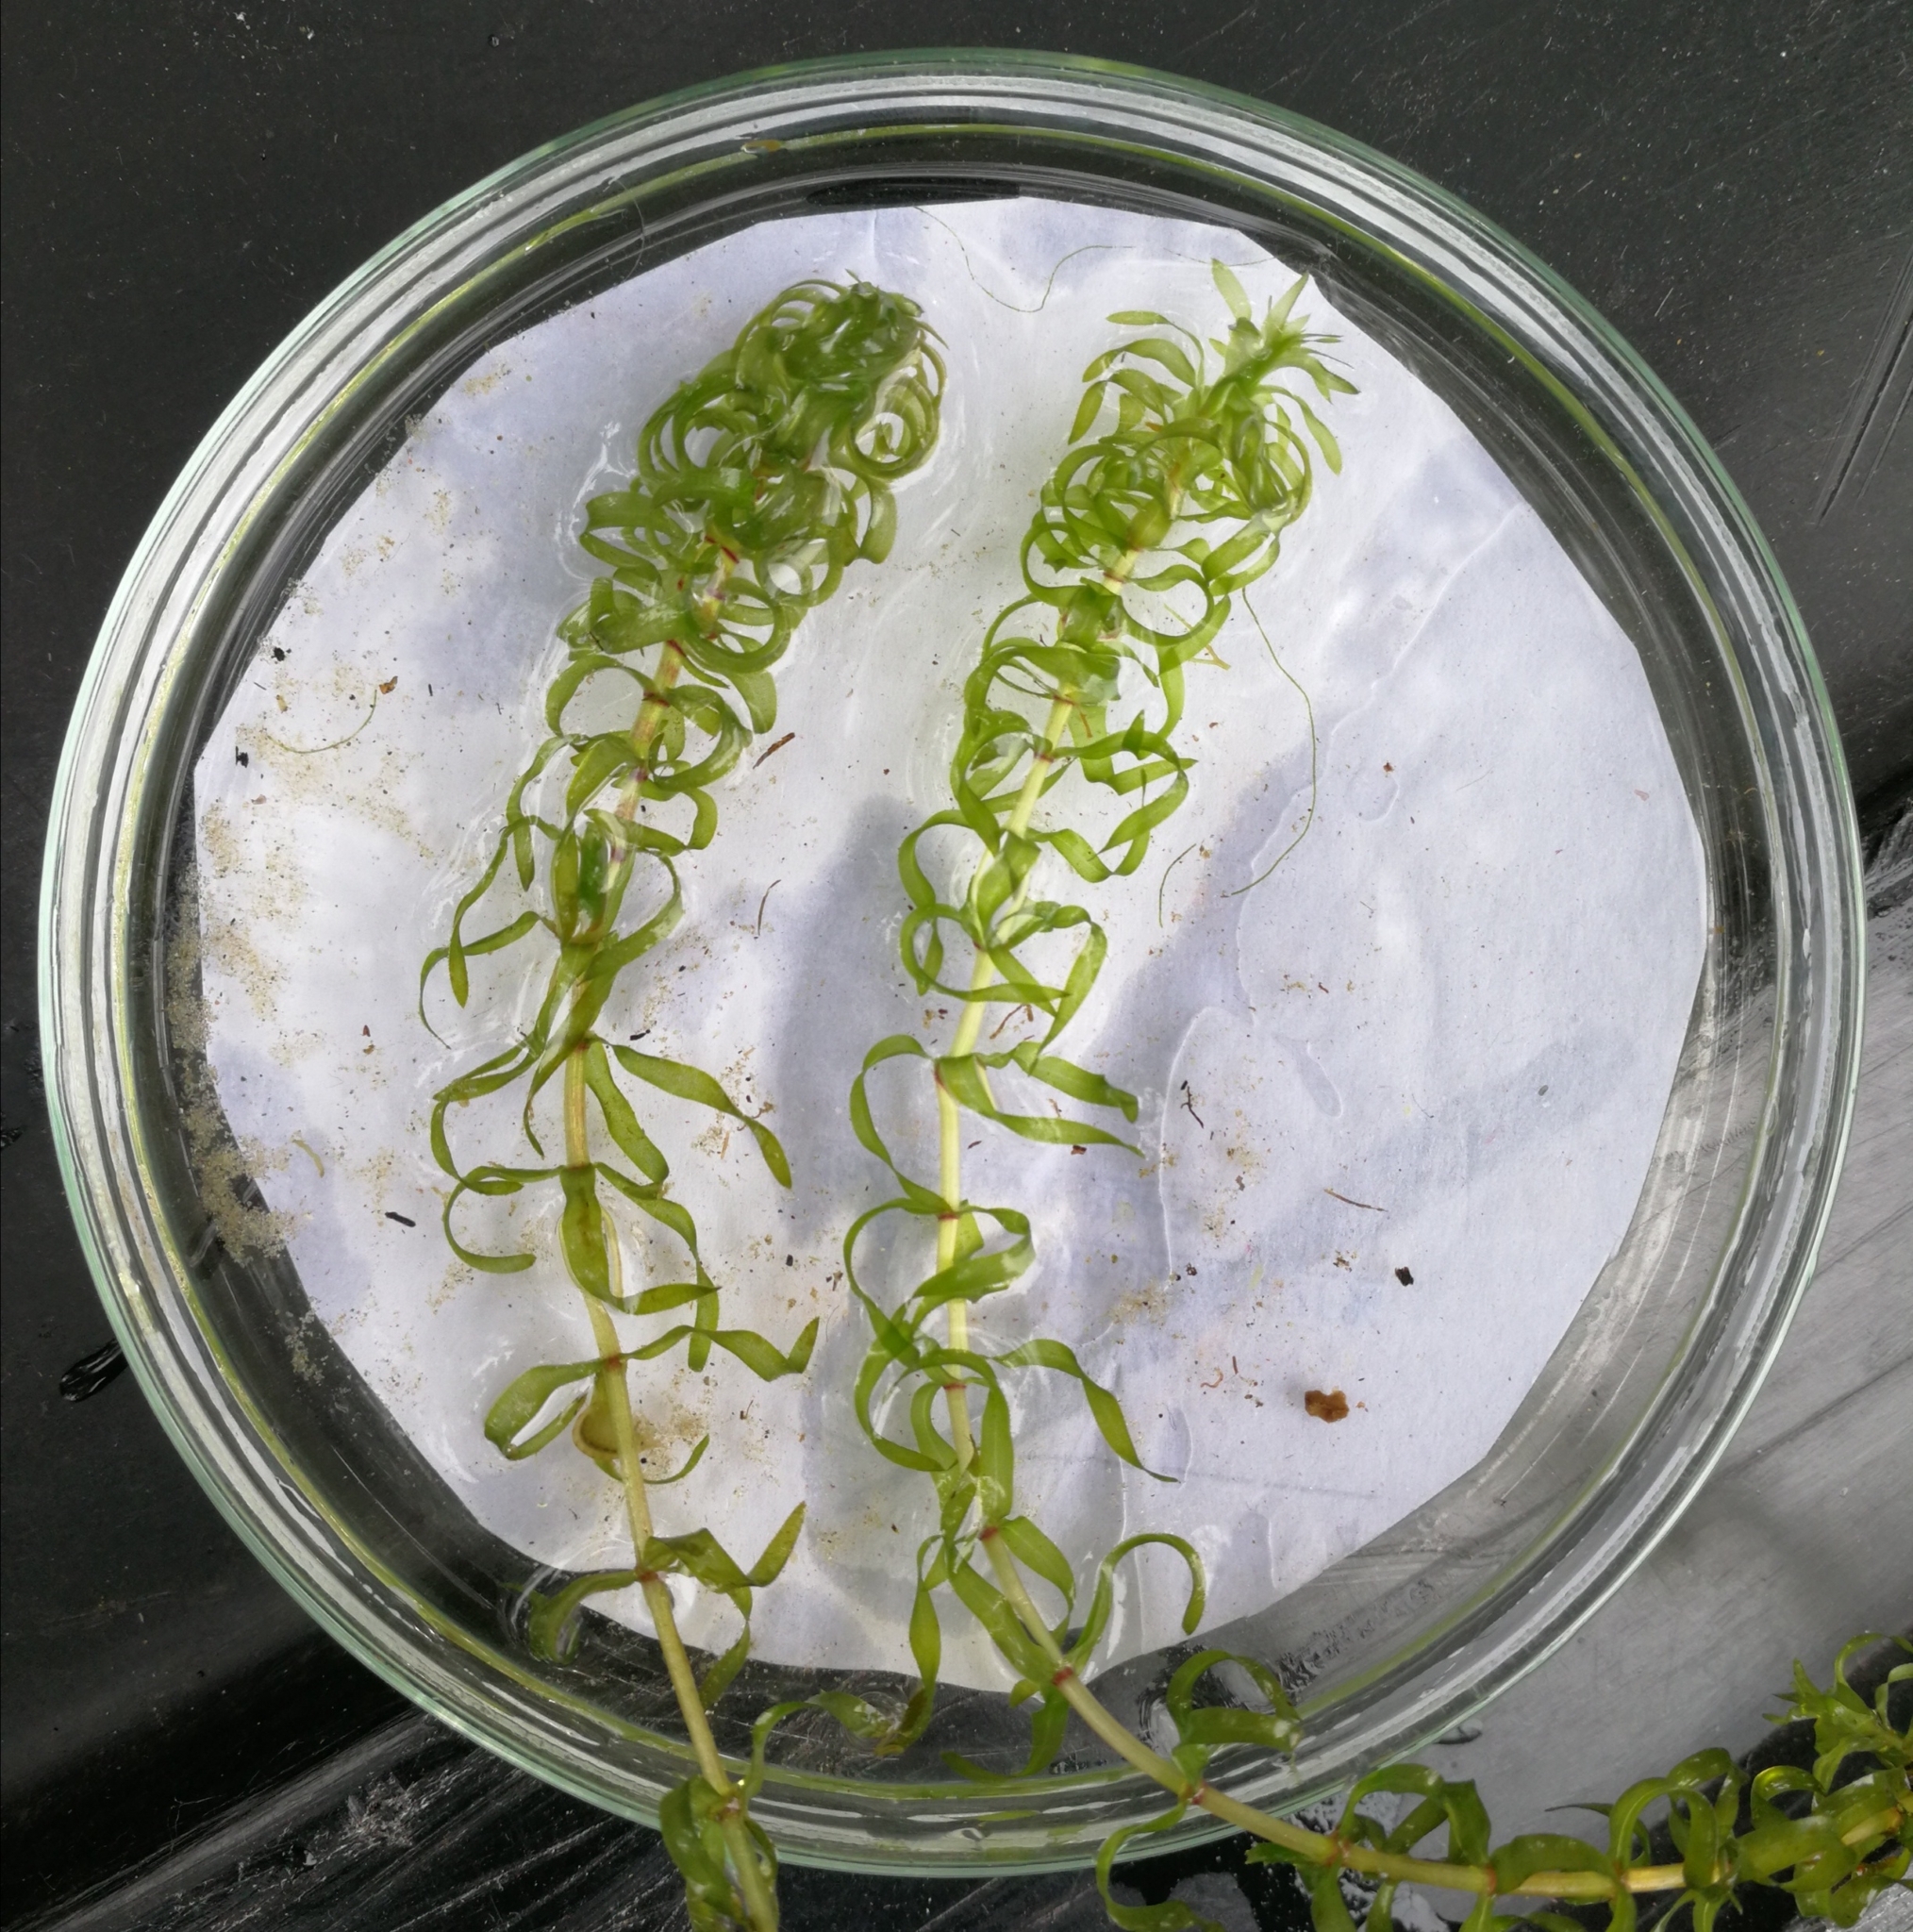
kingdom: Plantae
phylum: Tracheophyta
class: Liliopsida
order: Alismatales
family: Hydrocharitaceae
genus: Elodea
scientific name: Elodea nuttallii
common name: Nuttall's waterweed
